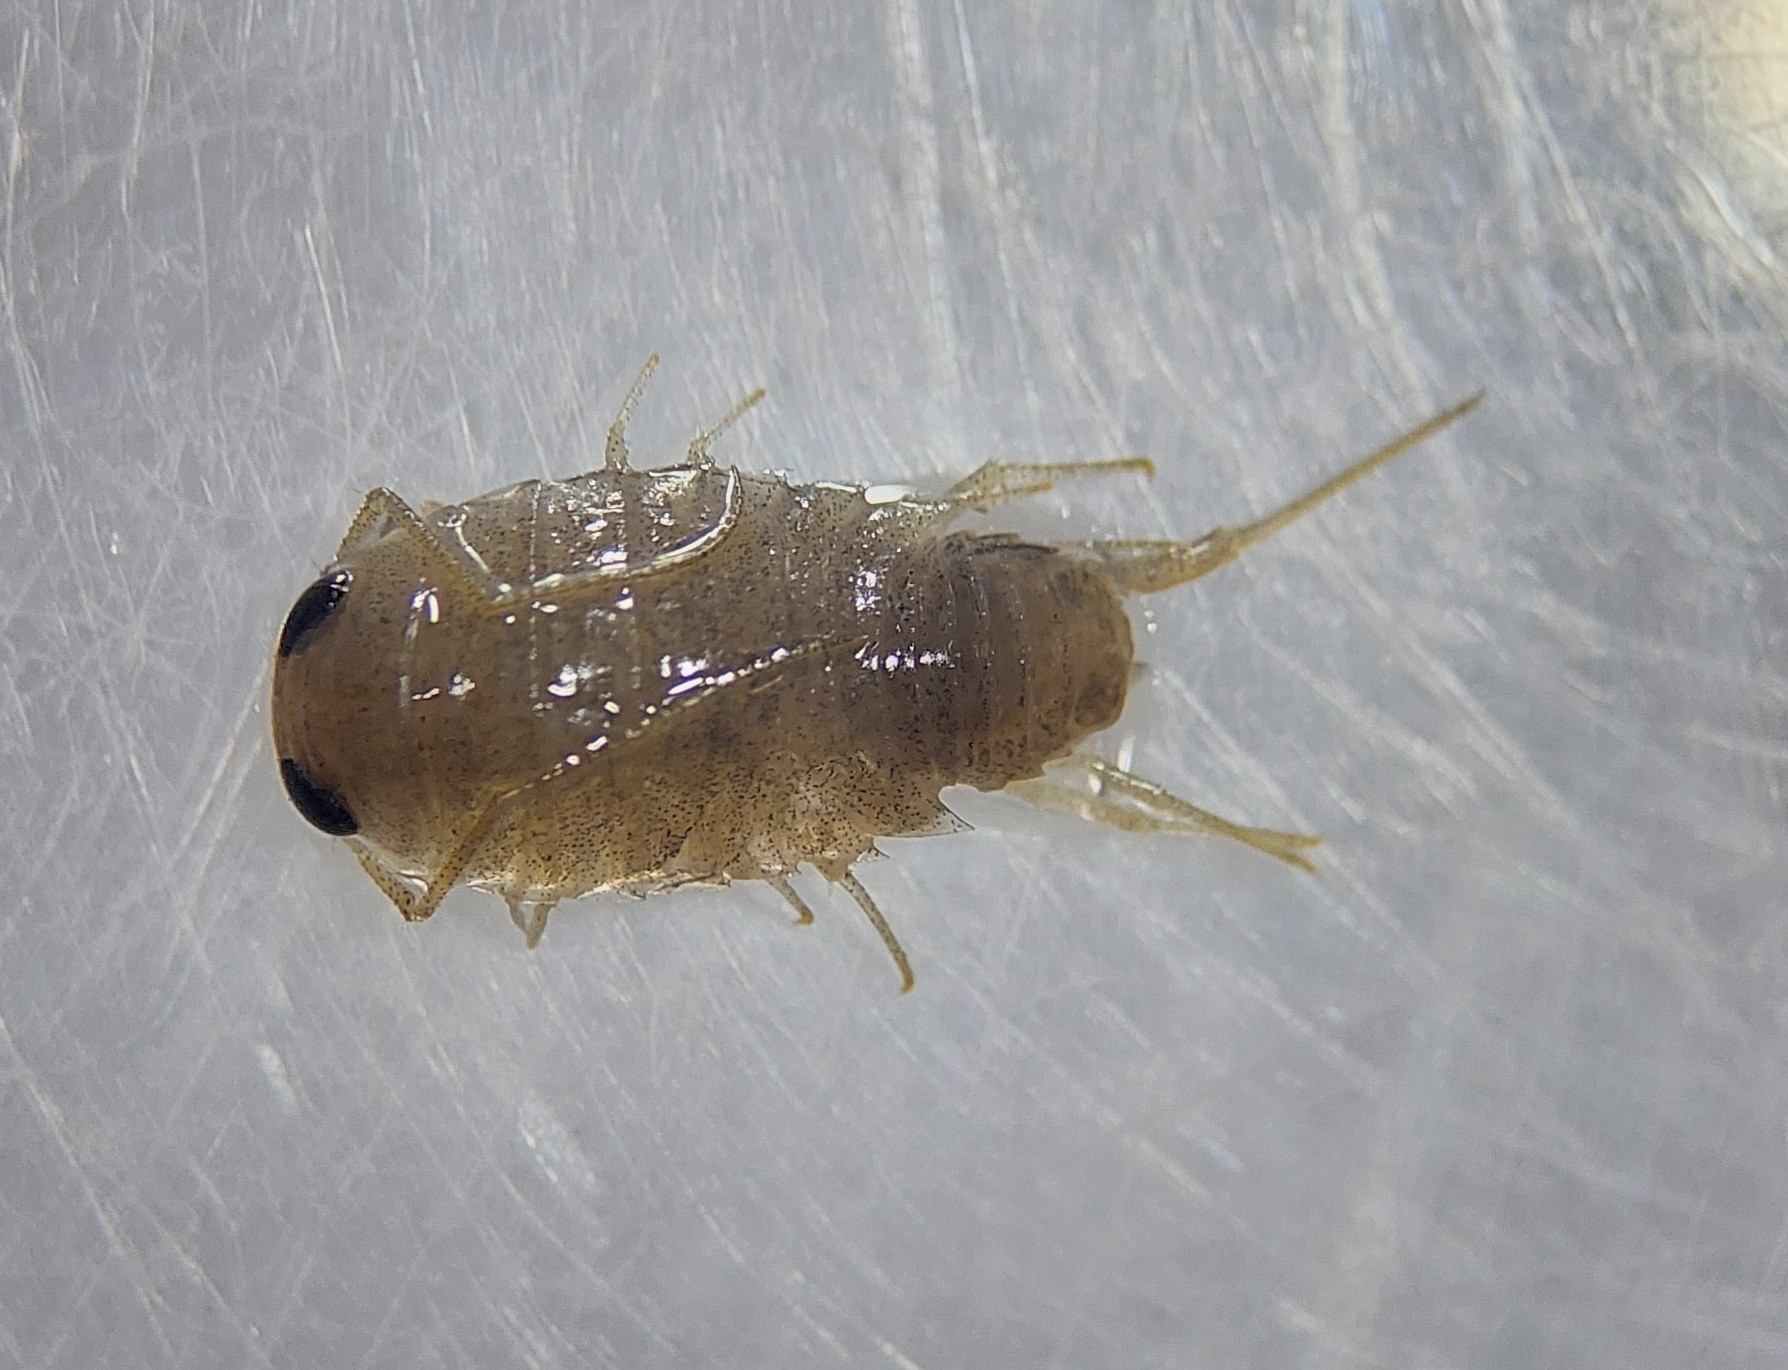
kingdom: Animalia
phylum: Arthropoda
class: Malacostraca
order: Isopoda
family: Ligiidae
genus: Ligia
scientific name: Ligia italica
